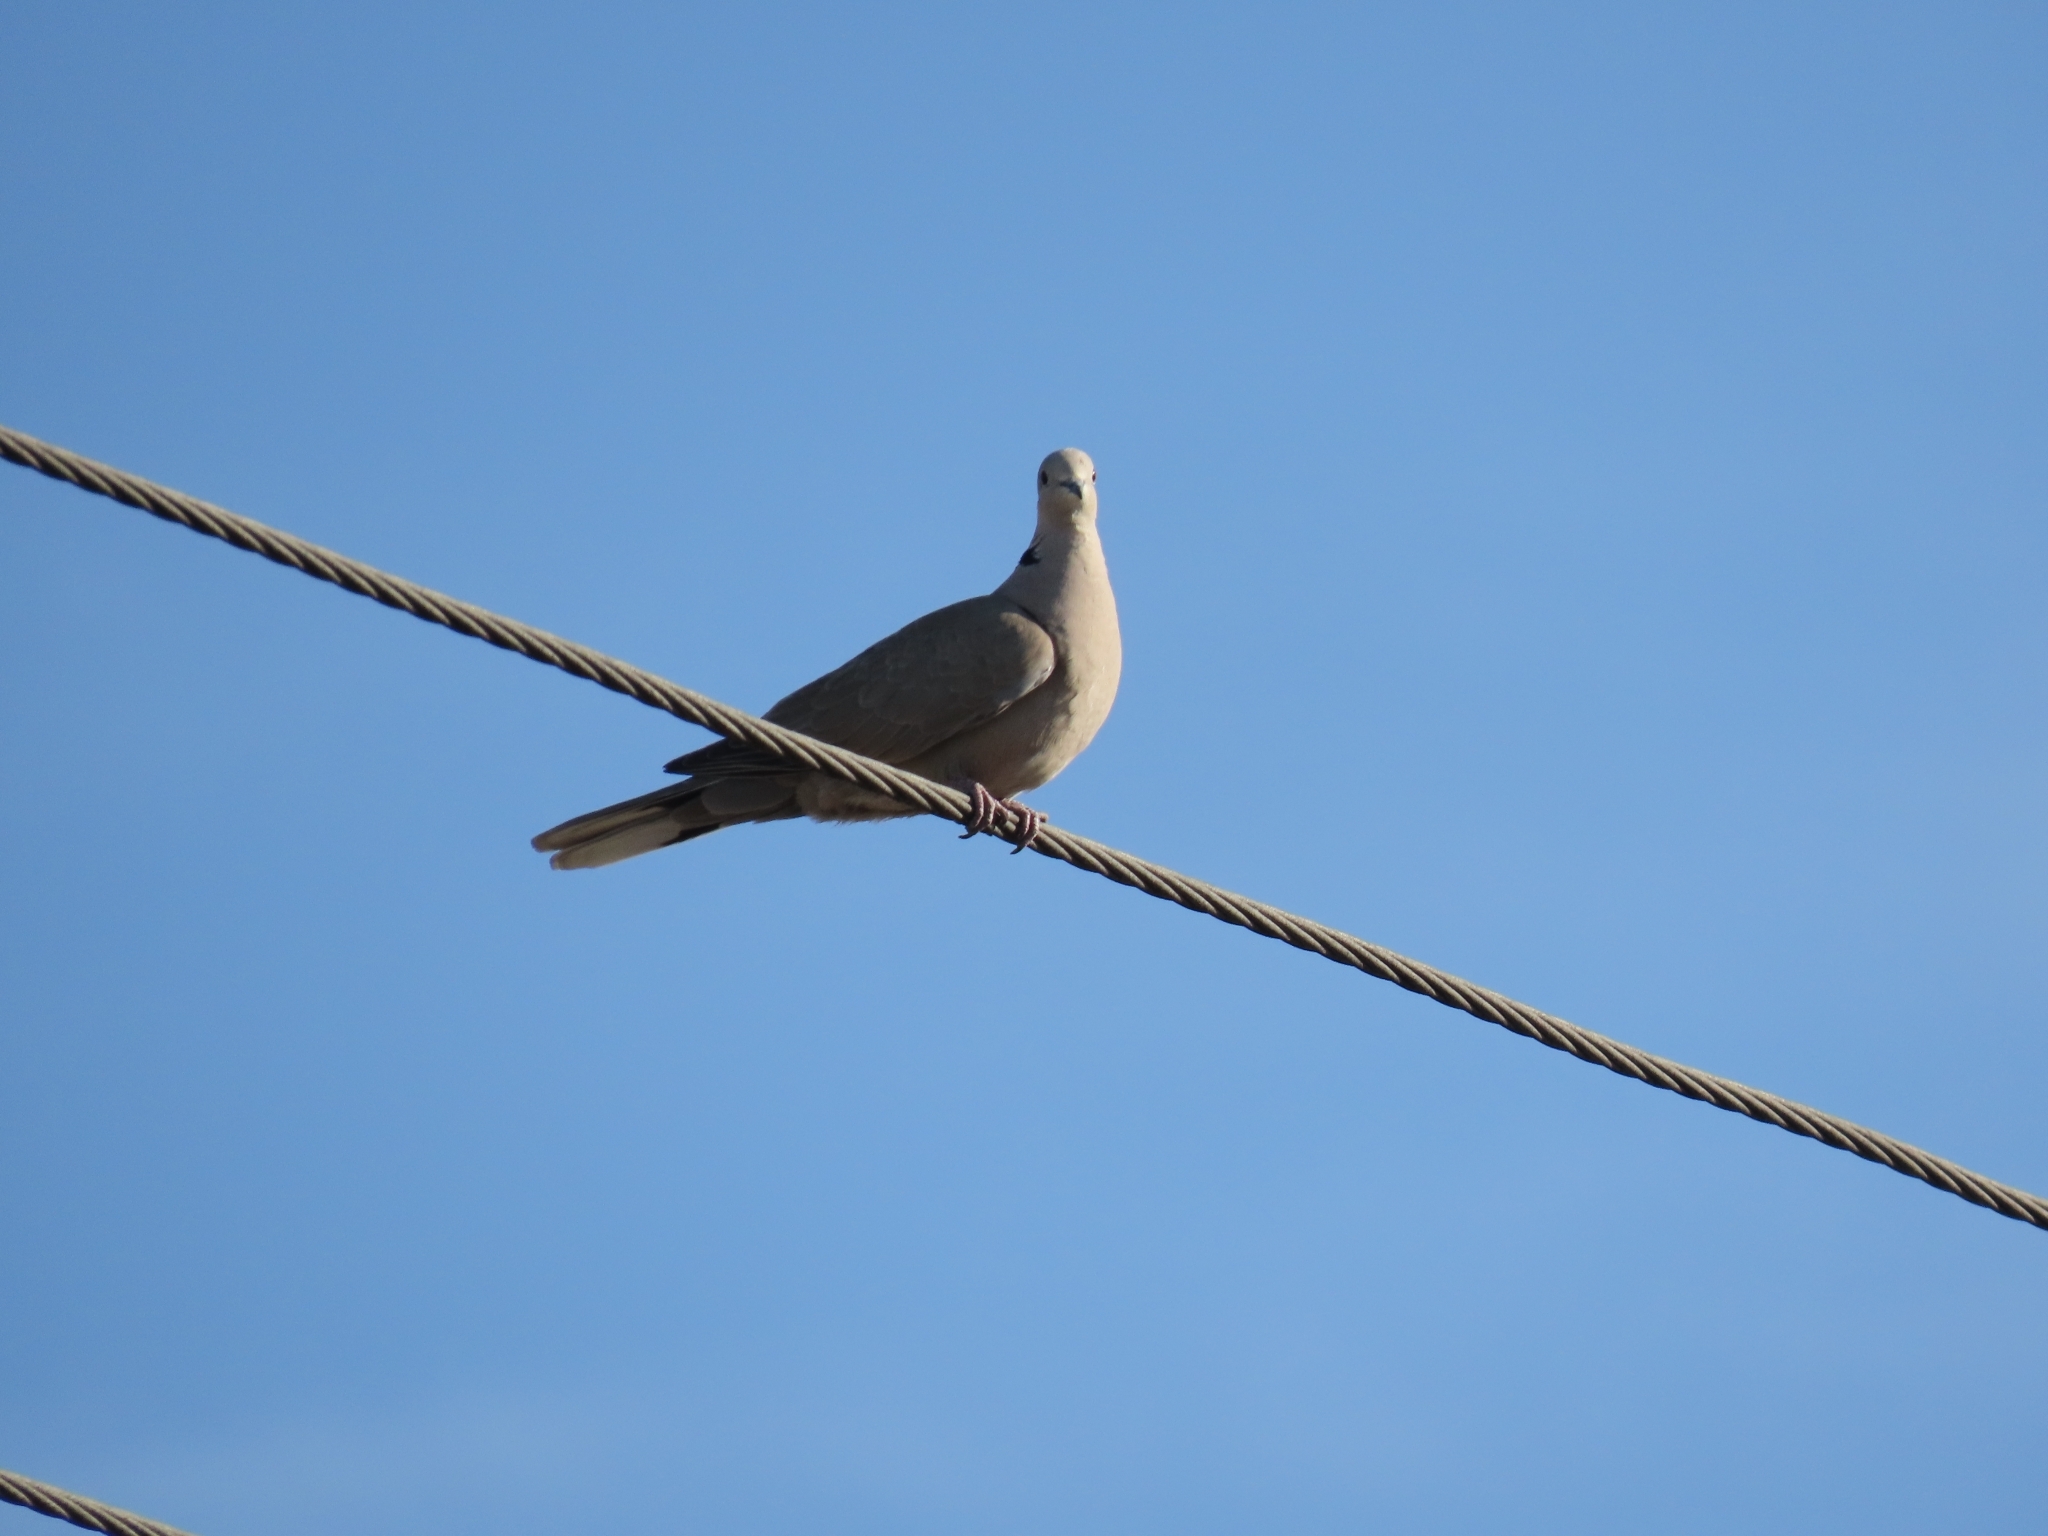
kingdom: Animalia
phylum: Chordata
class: Aves
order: Columbiformes
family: Columbidae
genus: Streptopelia
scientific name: Streptopelia decaocto
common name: Eurasian collared dove
